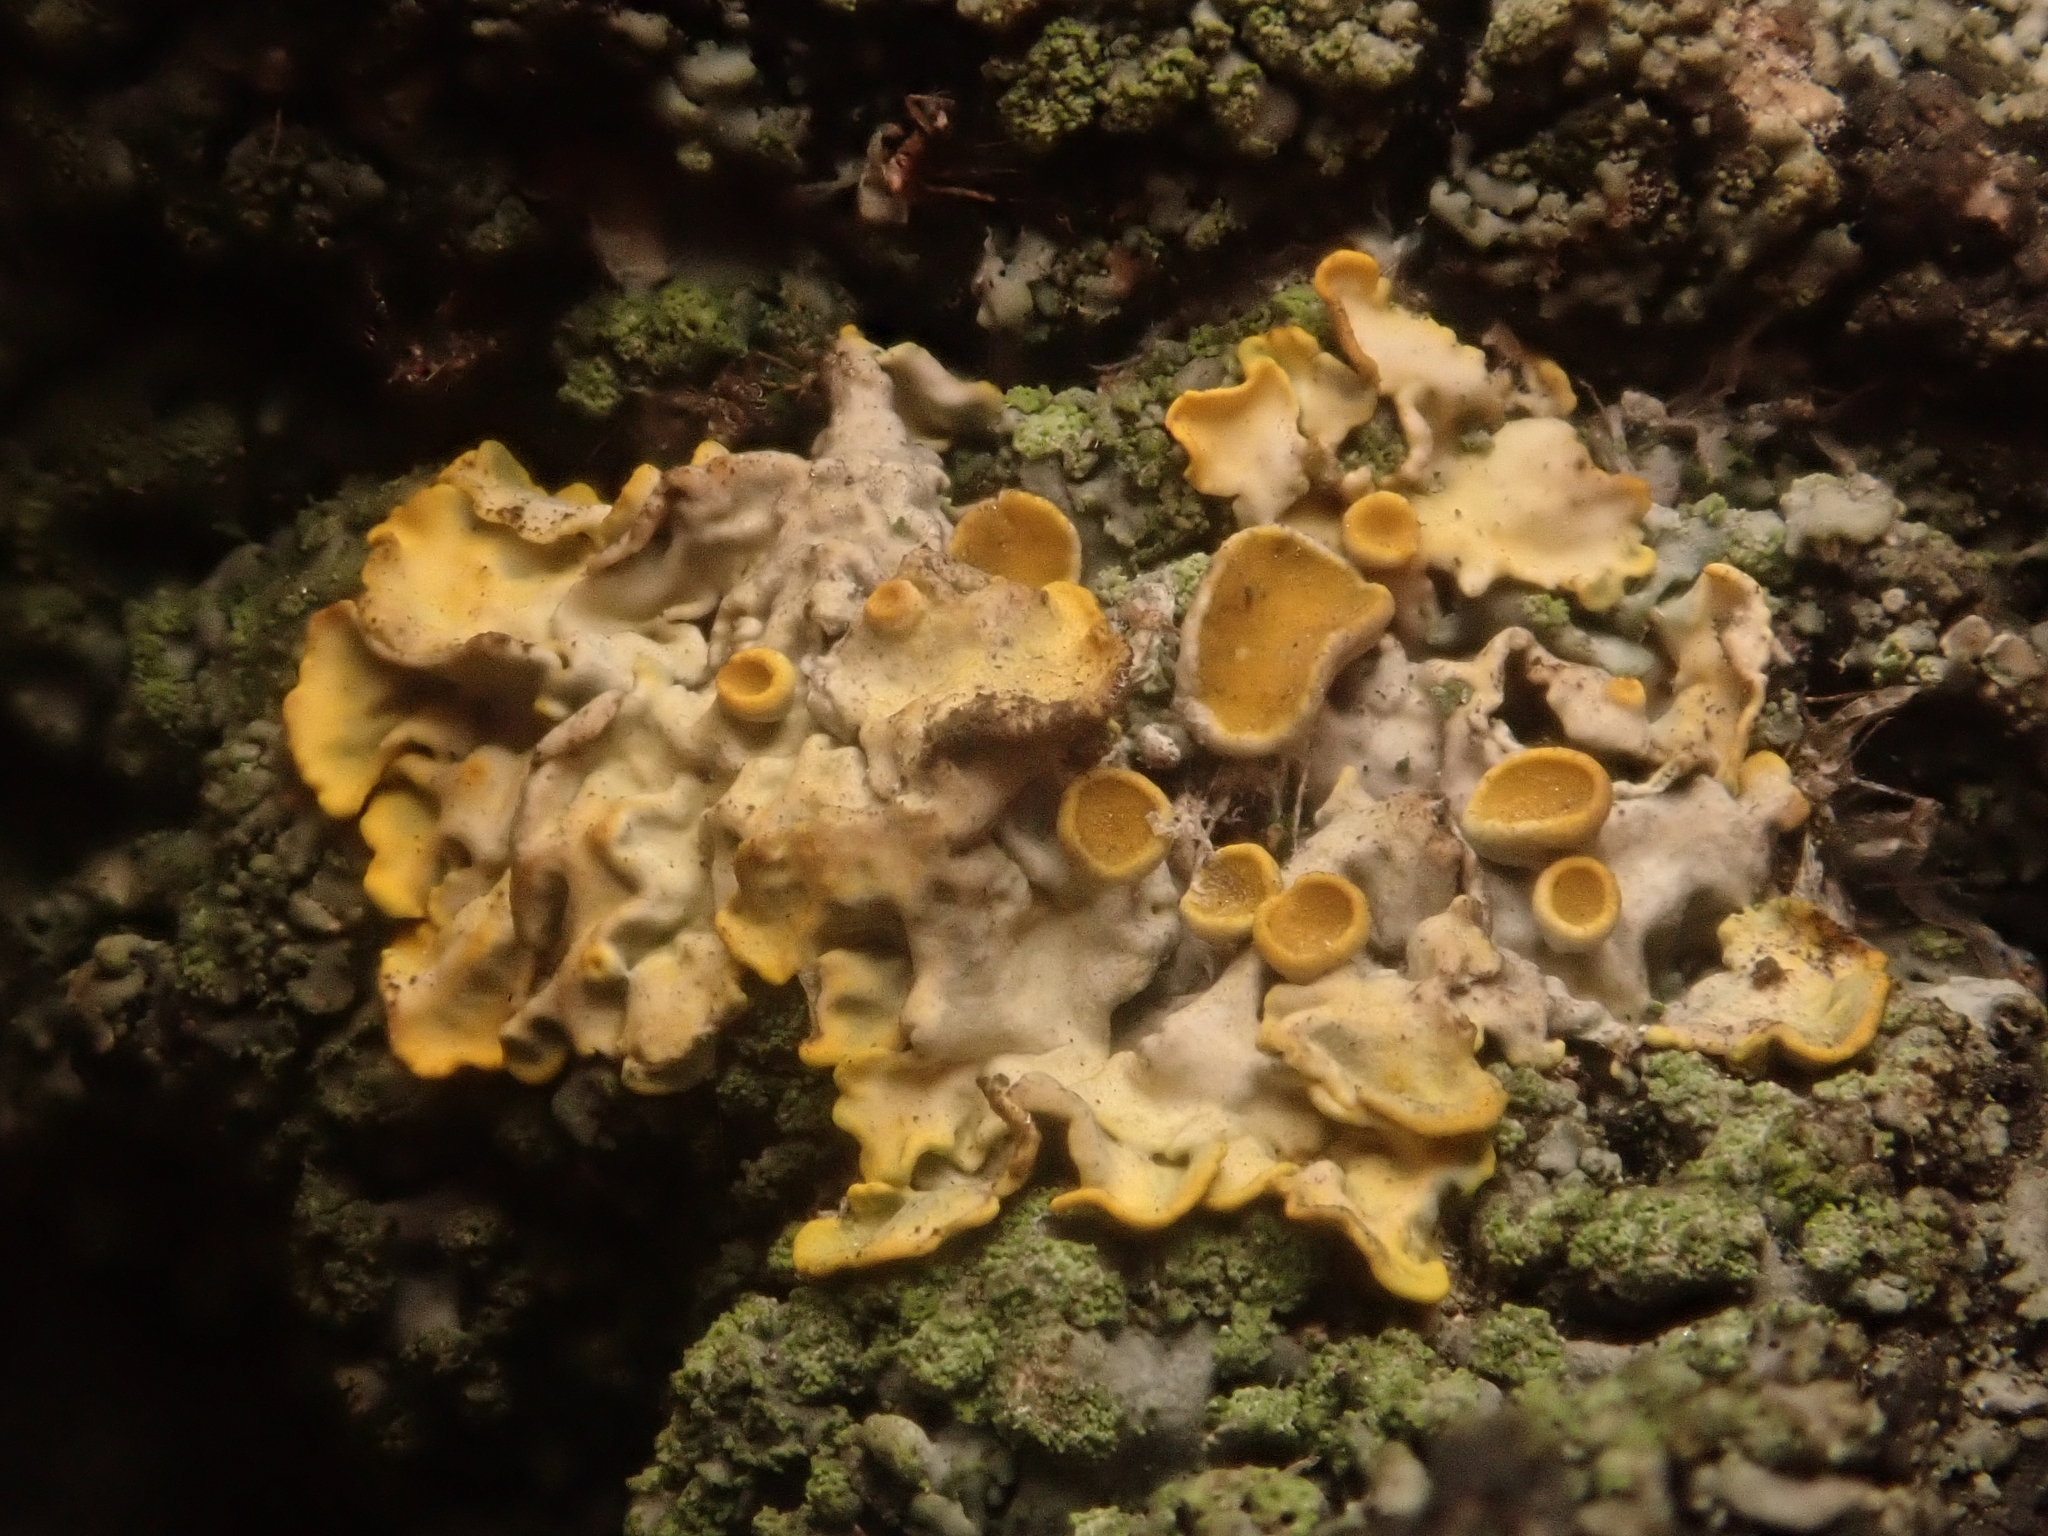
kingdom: Fungi
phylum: Ascomycota
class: Lecanoromycetes
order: Teloschistales
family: Teloschistaceae
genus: Xanthoria
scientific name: Xanthoria parietina
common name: Common orange lichen
